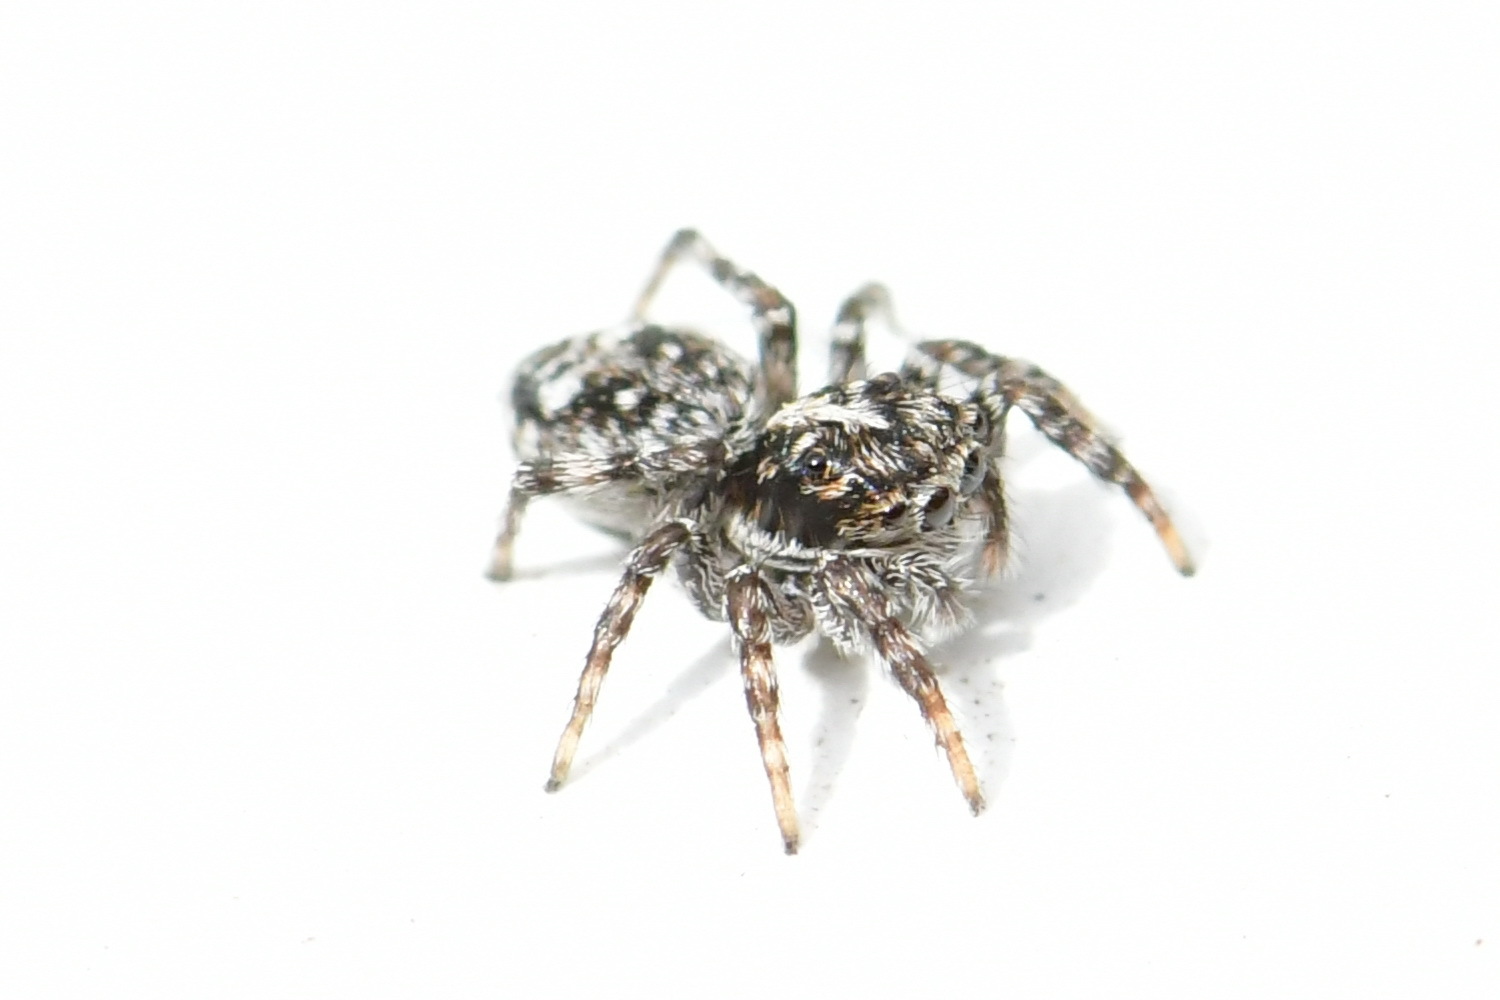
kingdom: Animalia
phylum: Arthropoda
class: Arachnida
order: Araneae
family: Salticidae
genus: Attulus
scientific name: Attulus terebratus
